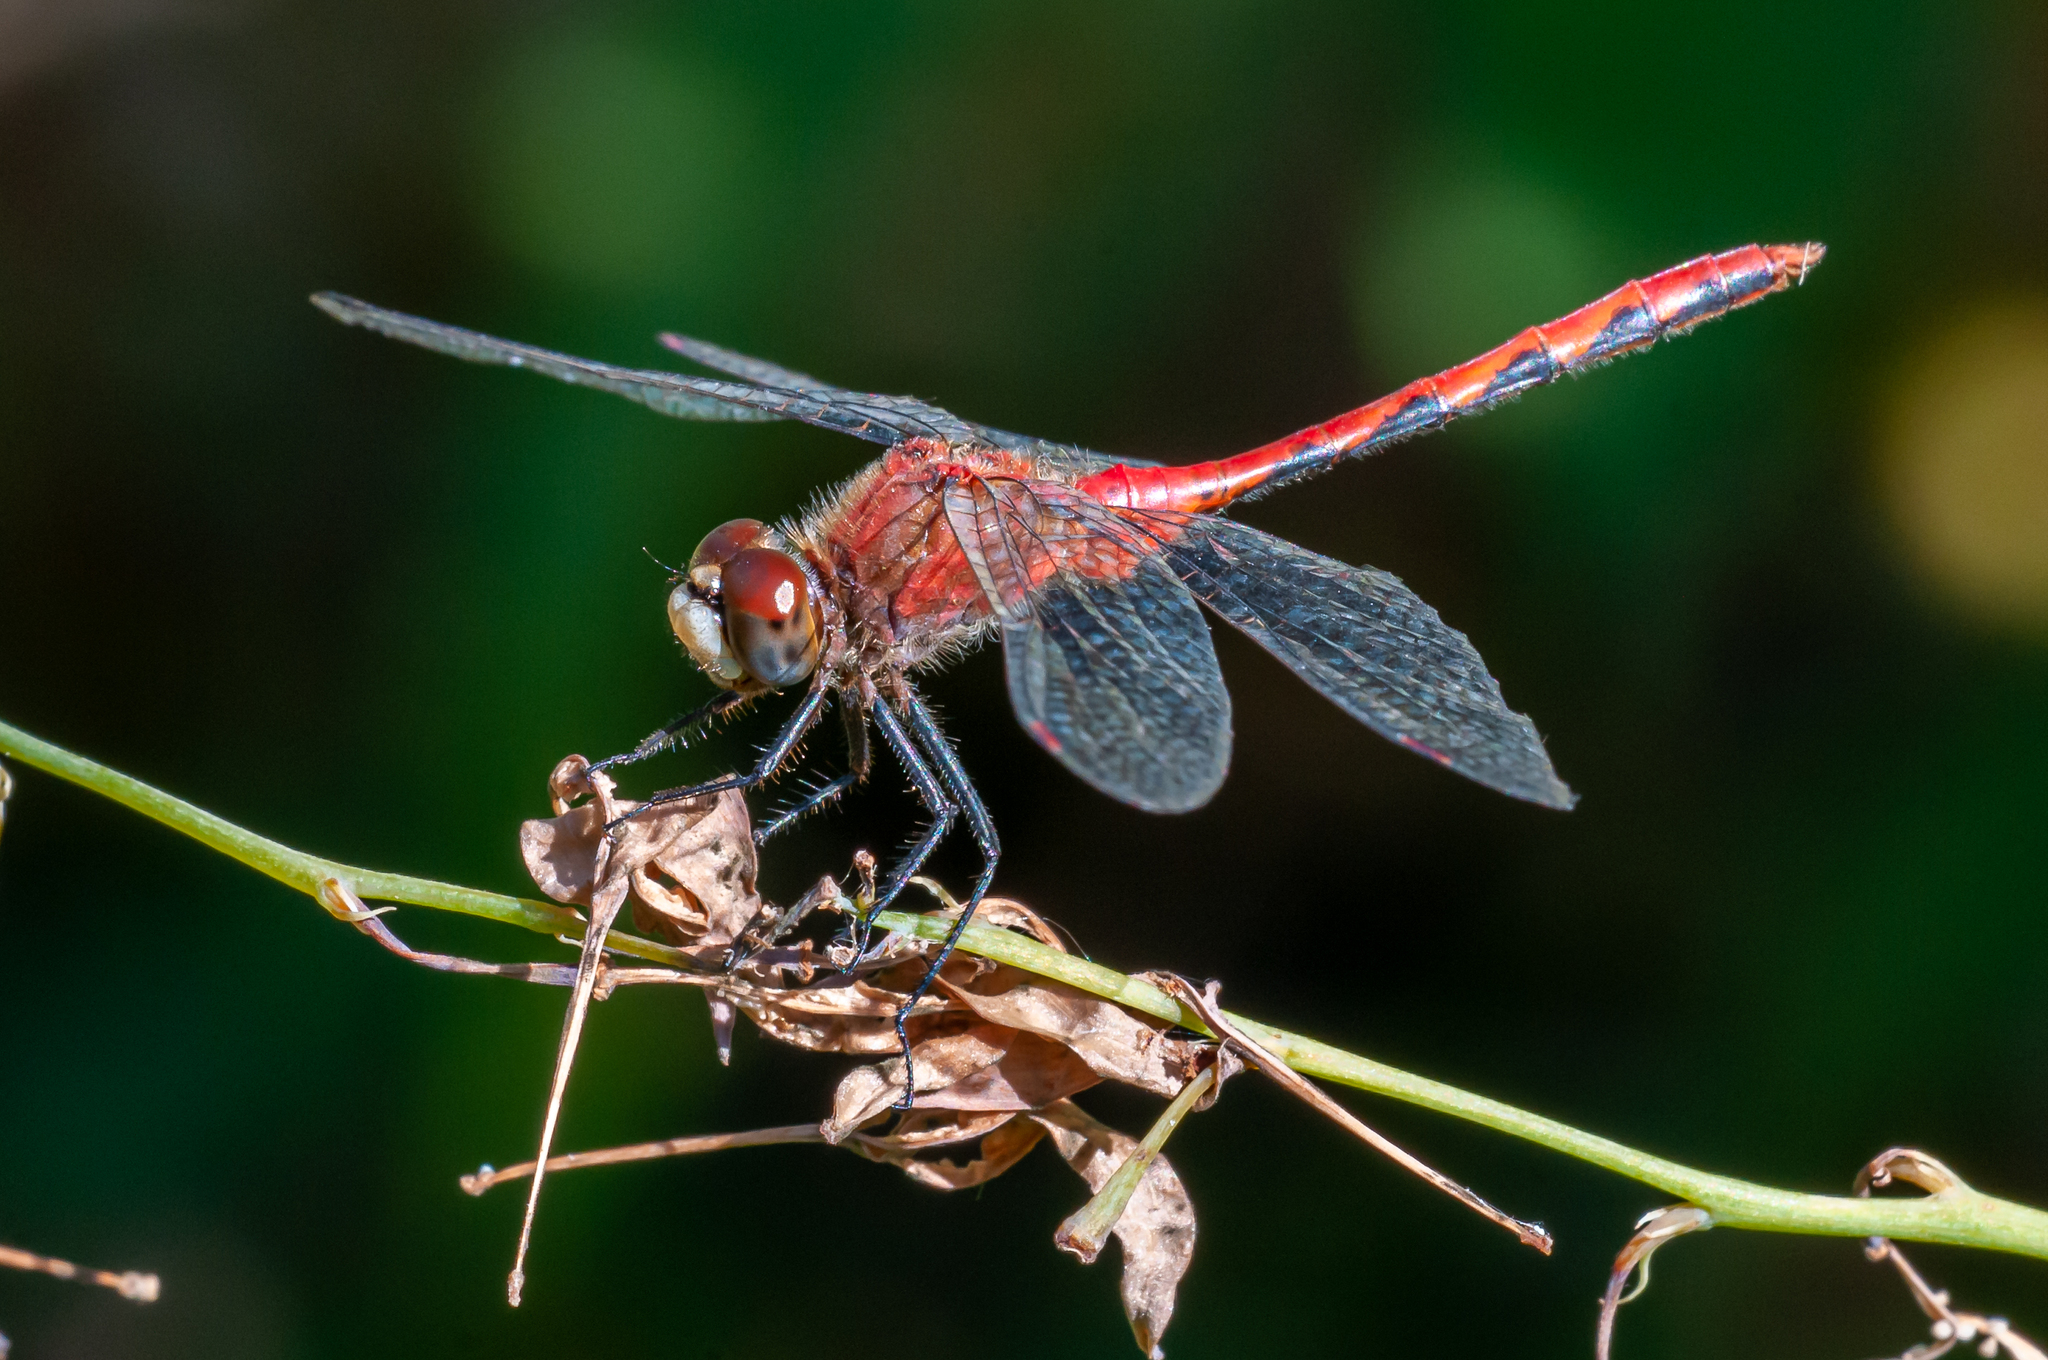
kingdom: Animalia
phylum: Arthropoda
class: Insecta
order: Odonata
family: Libellulidae
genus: Sympetrum
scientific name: Sympetrum obtrusum
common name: White-faced meadowhawk
